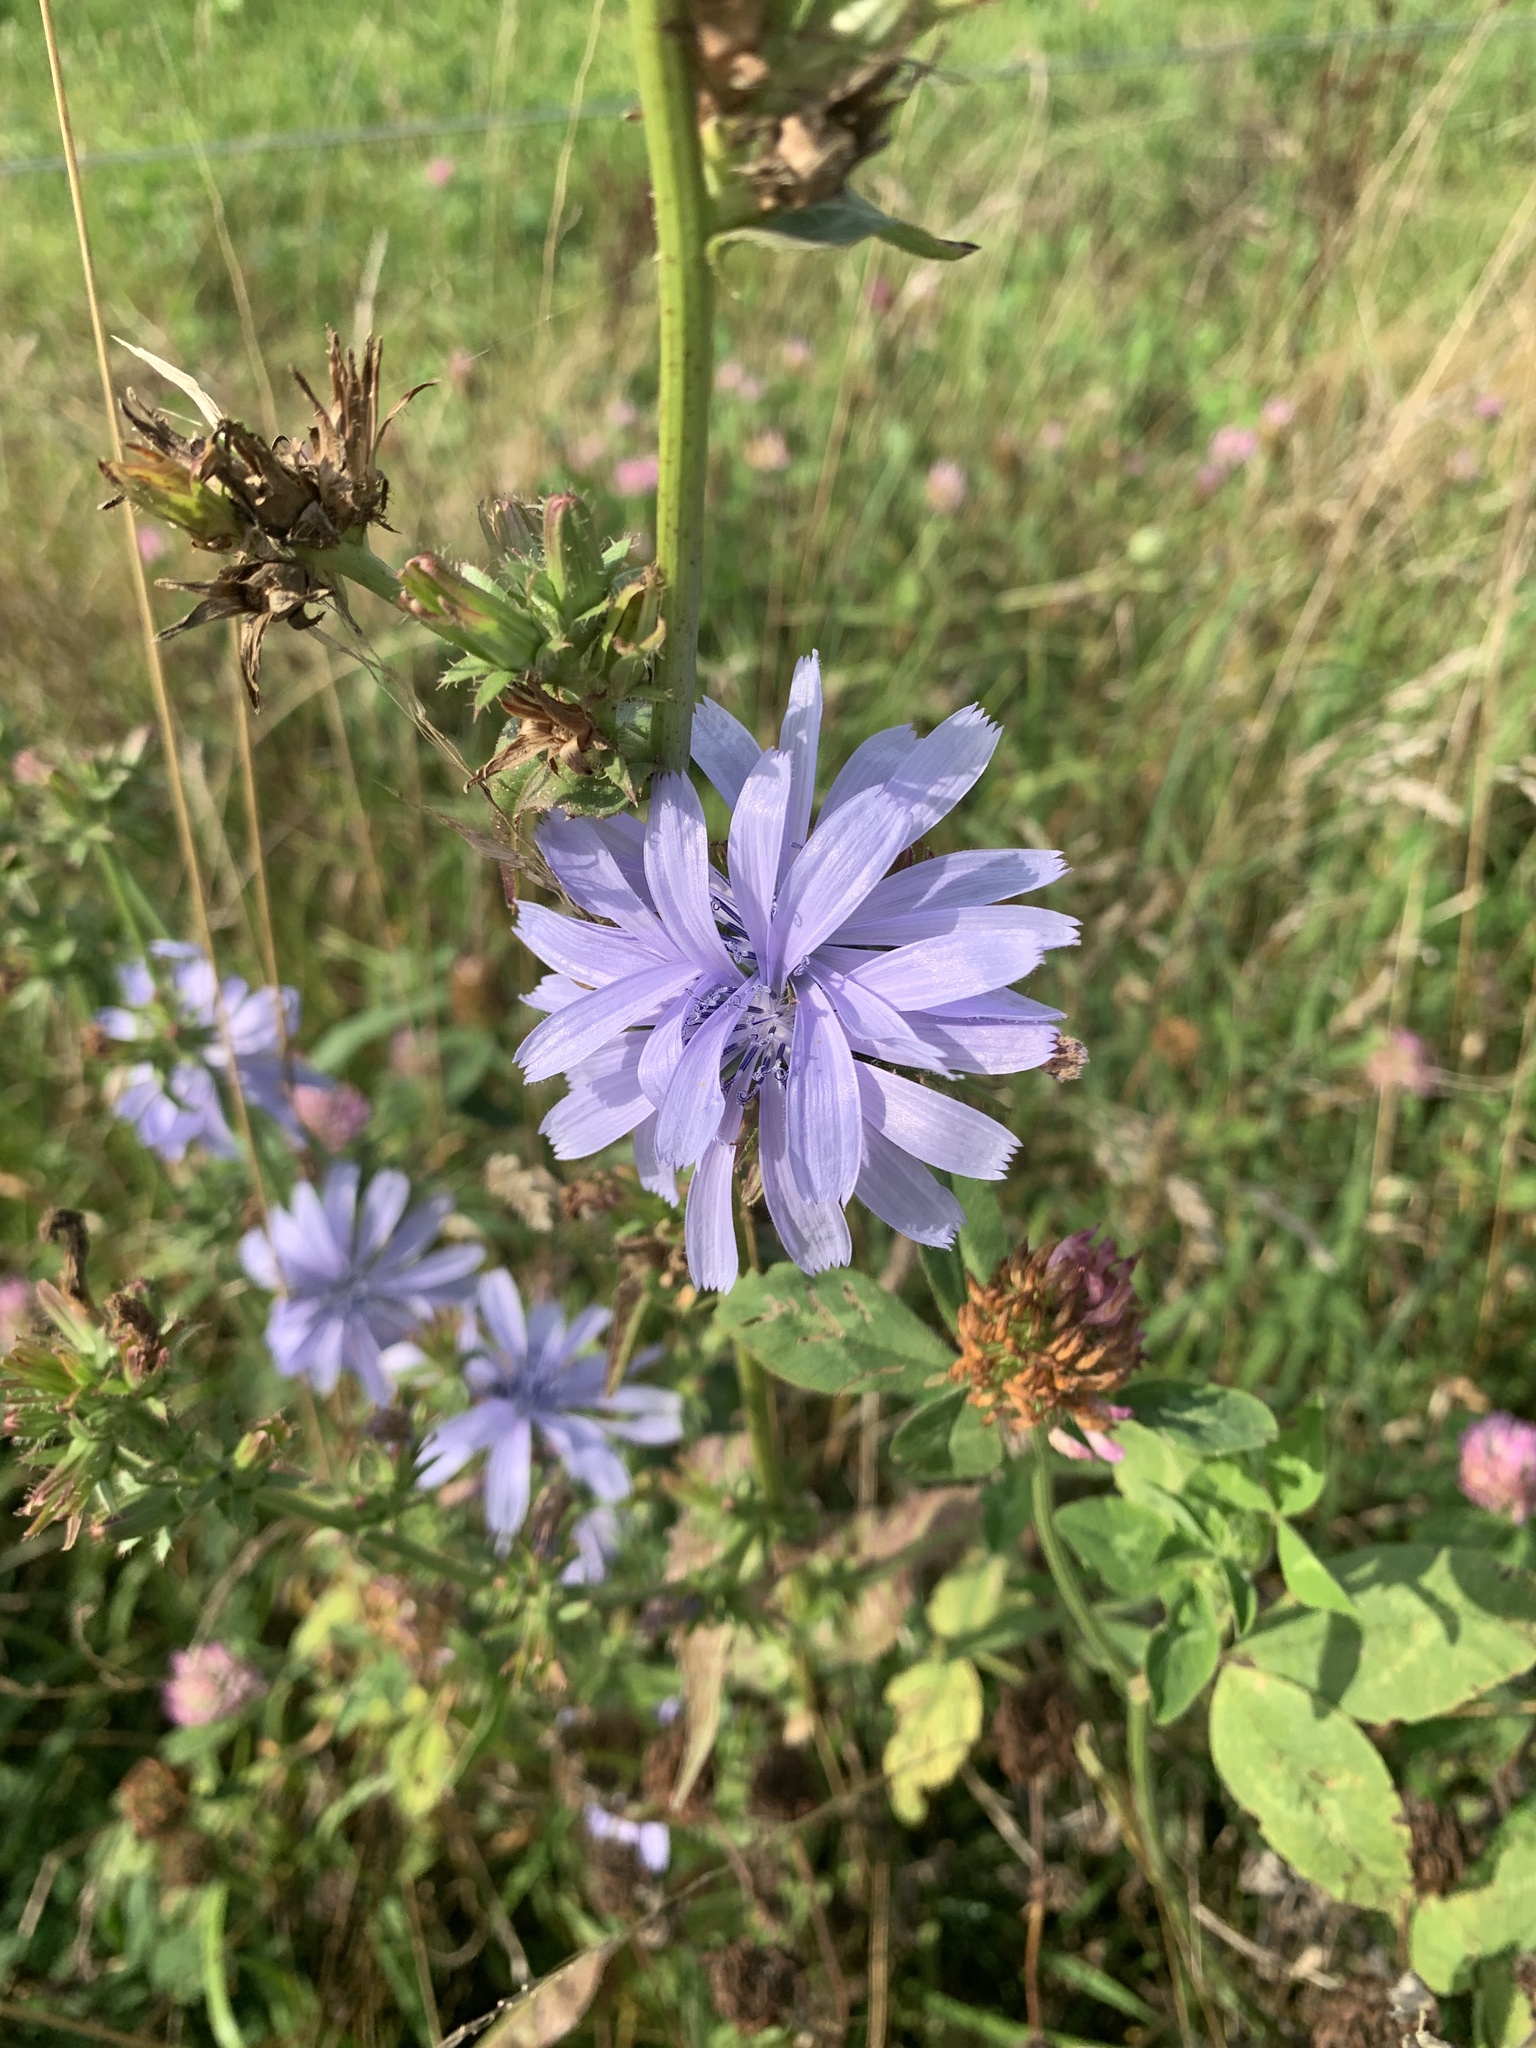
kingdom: Plantae
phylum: Tracheophyta
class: Magnoliopsida
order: Asterales
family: Asteraceae
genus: Cichorium
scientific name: Cichorium intybus
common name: Chicory
